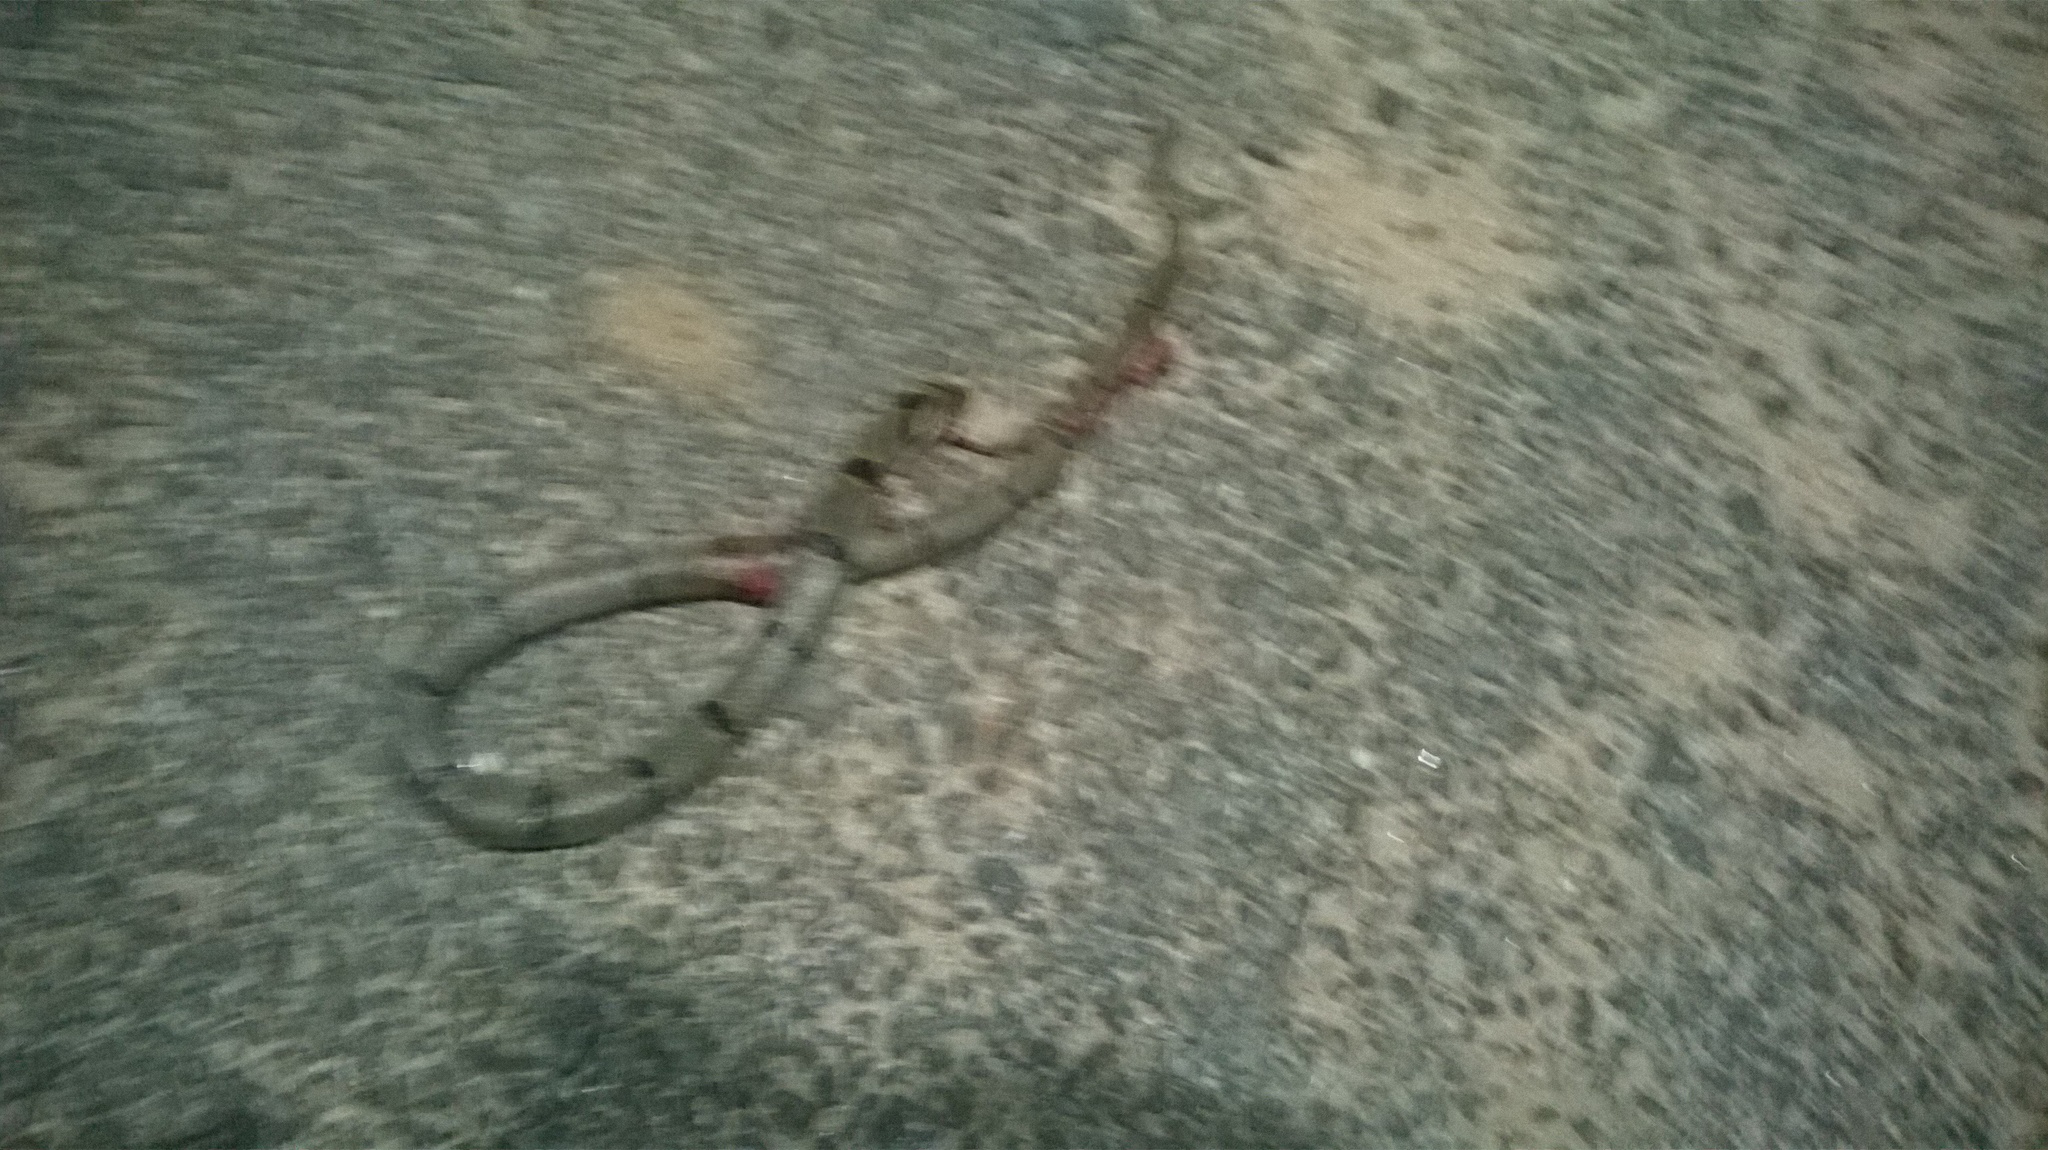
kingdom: Animalia
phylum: Chordata
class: Squamata
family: Colubridae
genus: Oligodon
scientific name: Oligodon arnensis
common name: Banded kukri
